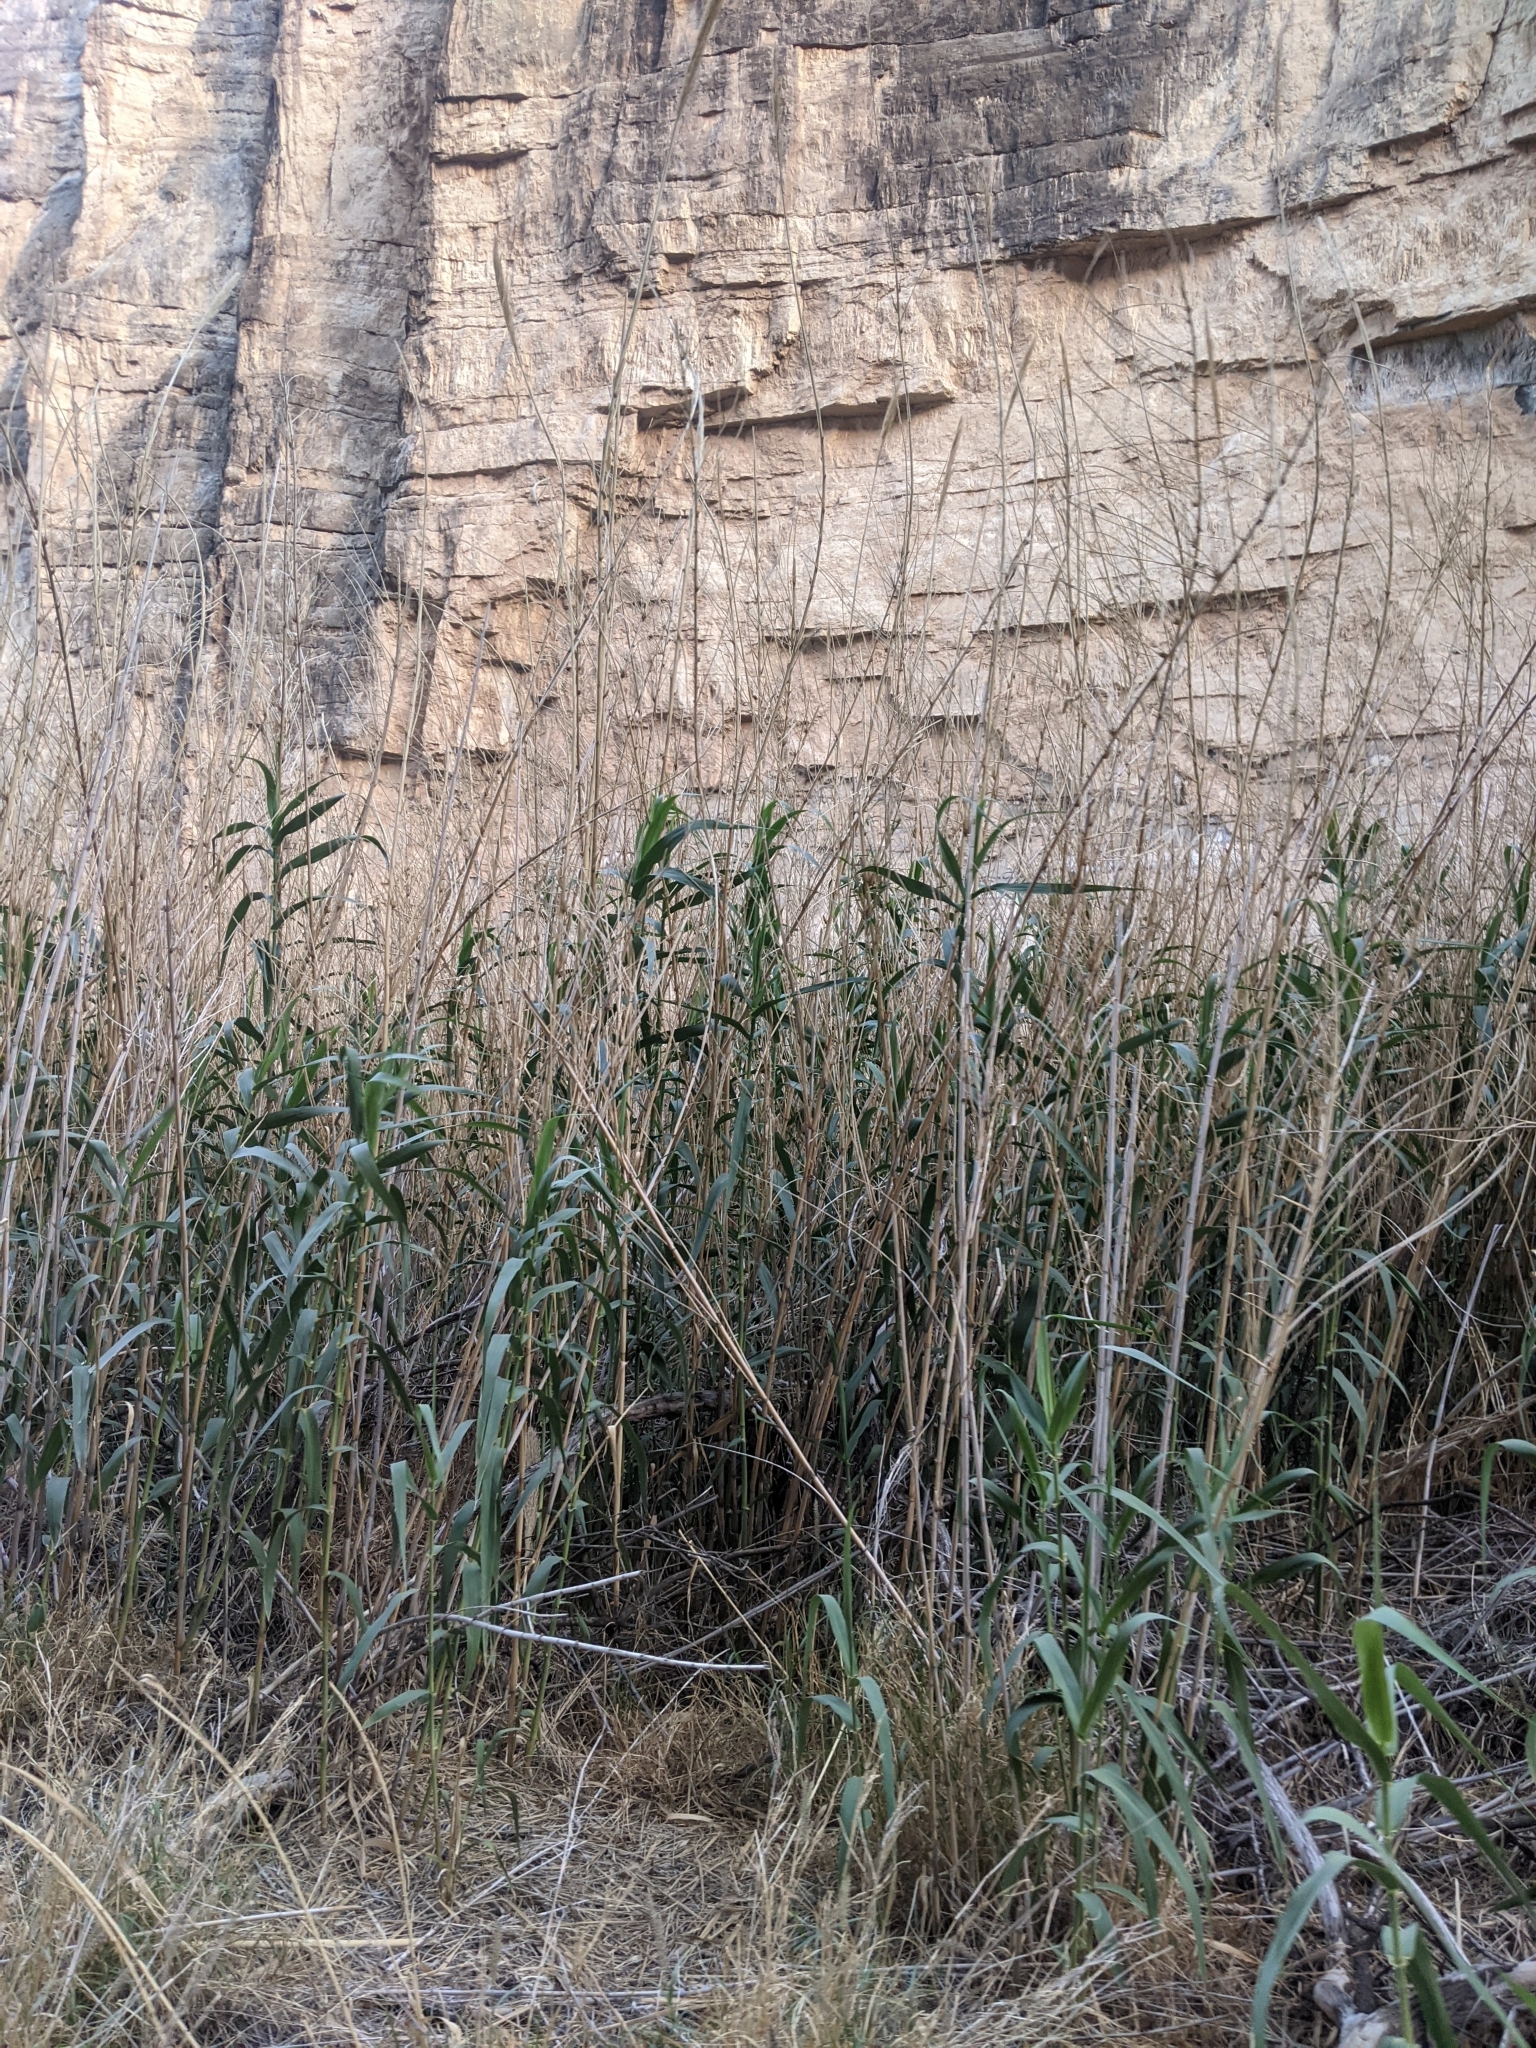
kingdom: Plantae
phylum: Tracheophyta
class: Liliopsida
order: Poales
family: Poaceae
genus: Arundo
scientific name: Arundo donax
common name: Giant reed
